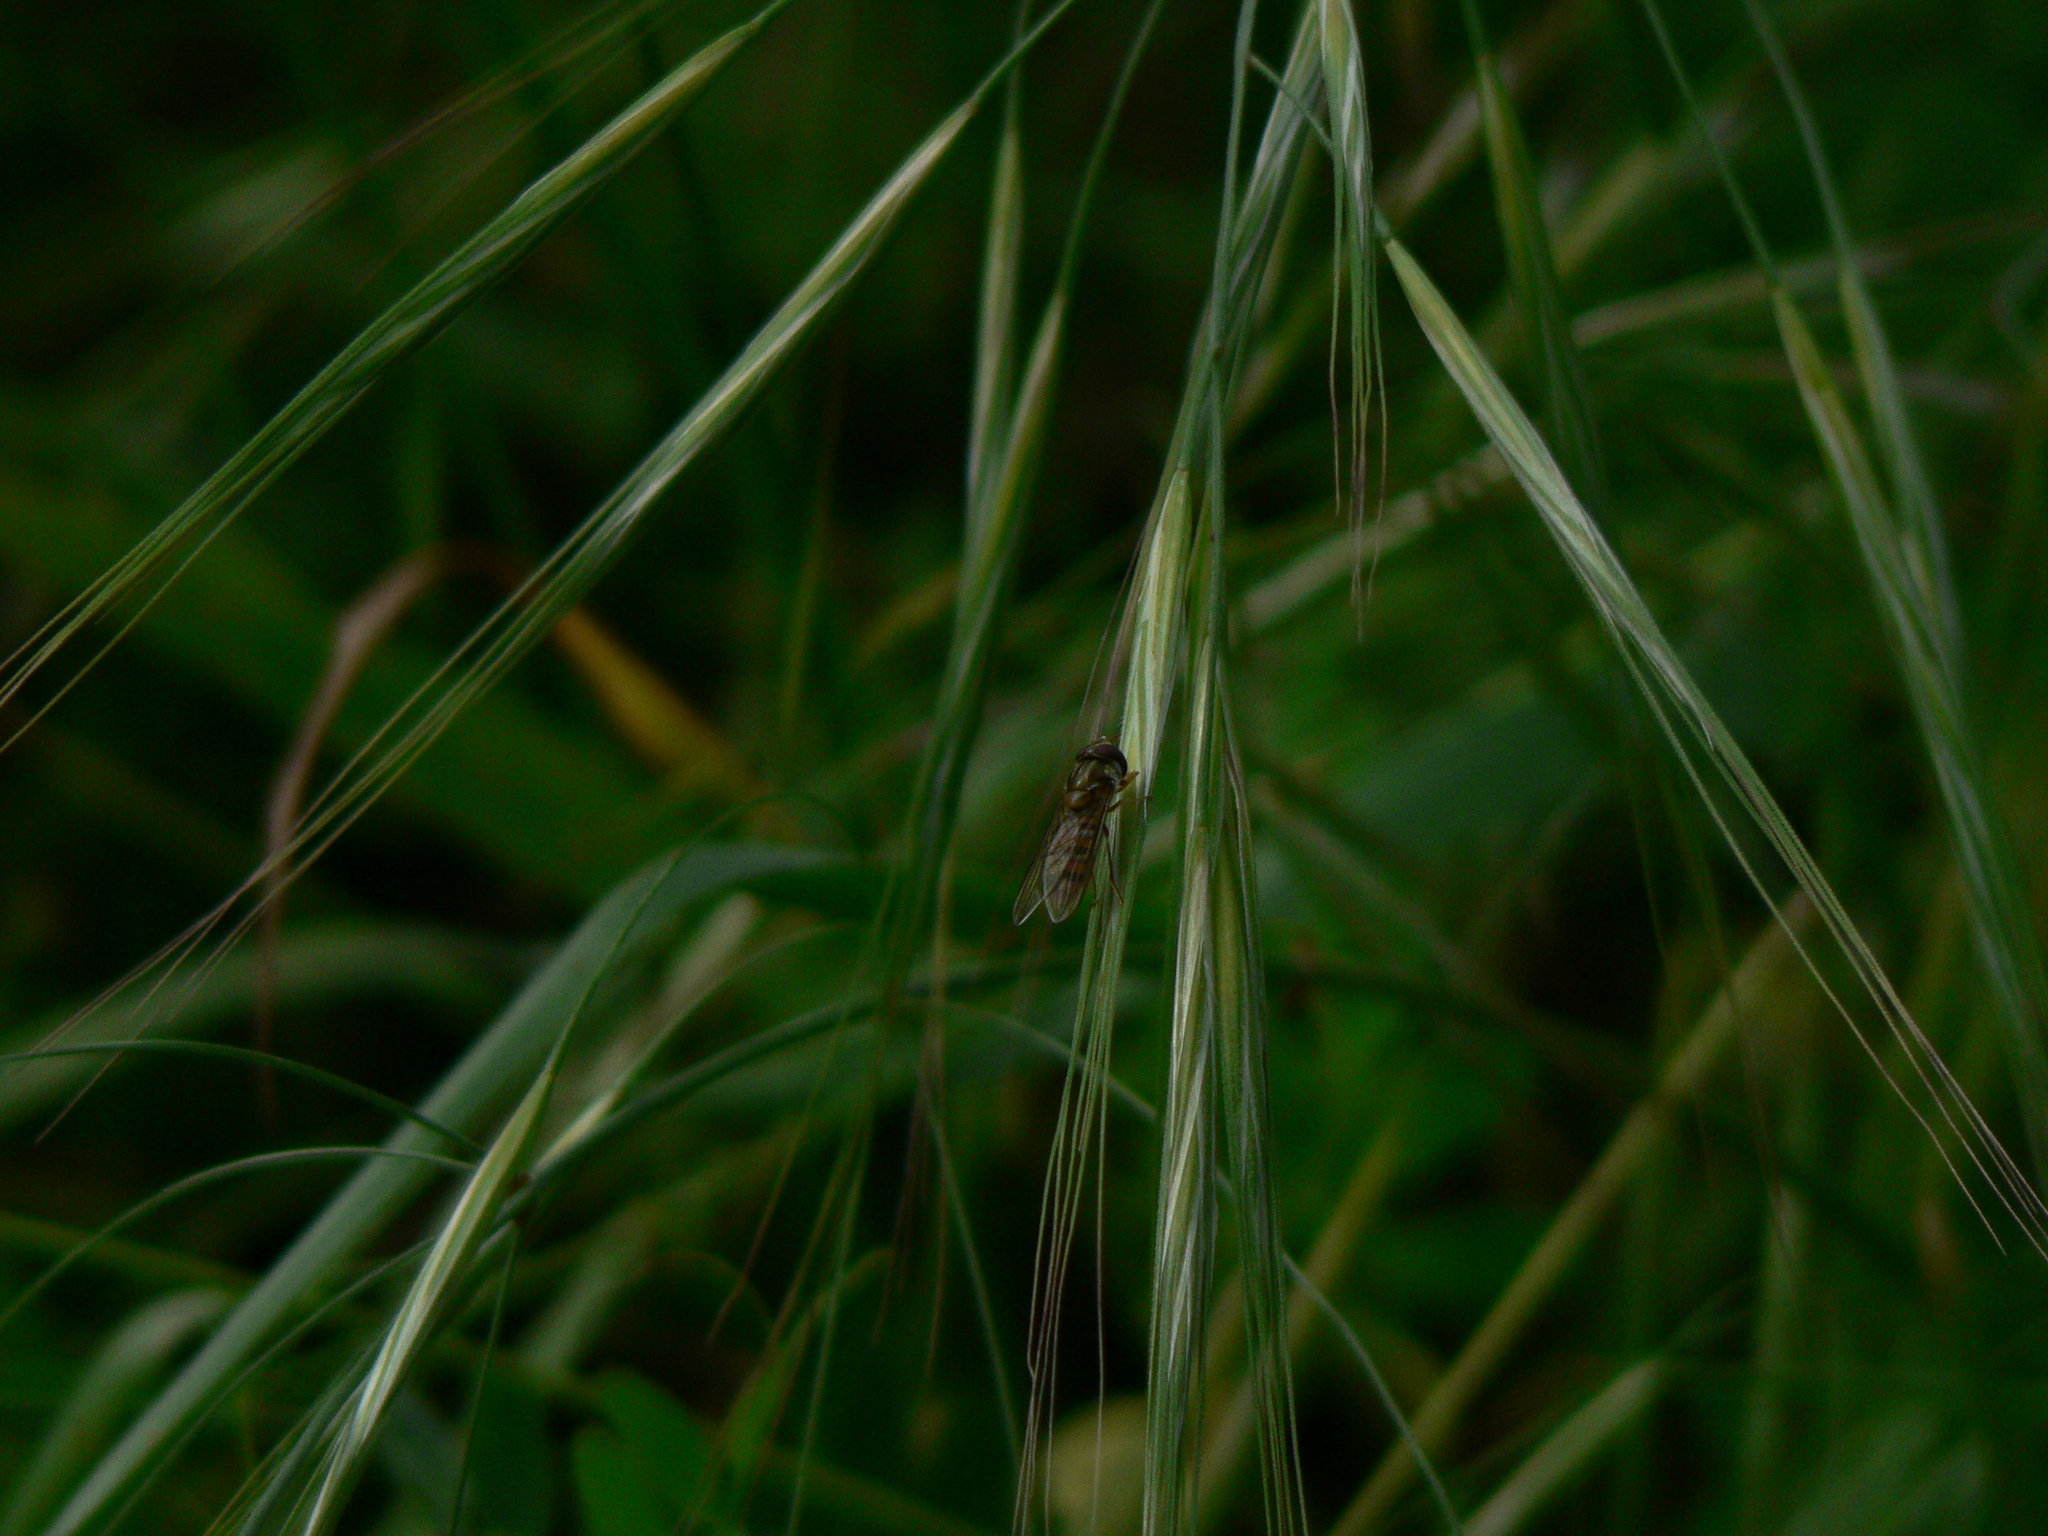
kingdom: Animalia
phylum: Arthropoda
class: Insecta
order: Diptera
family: Syrphidae
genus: Episyrphus
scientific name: Episyrphus balteatus
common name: Marmalade hoverfly
